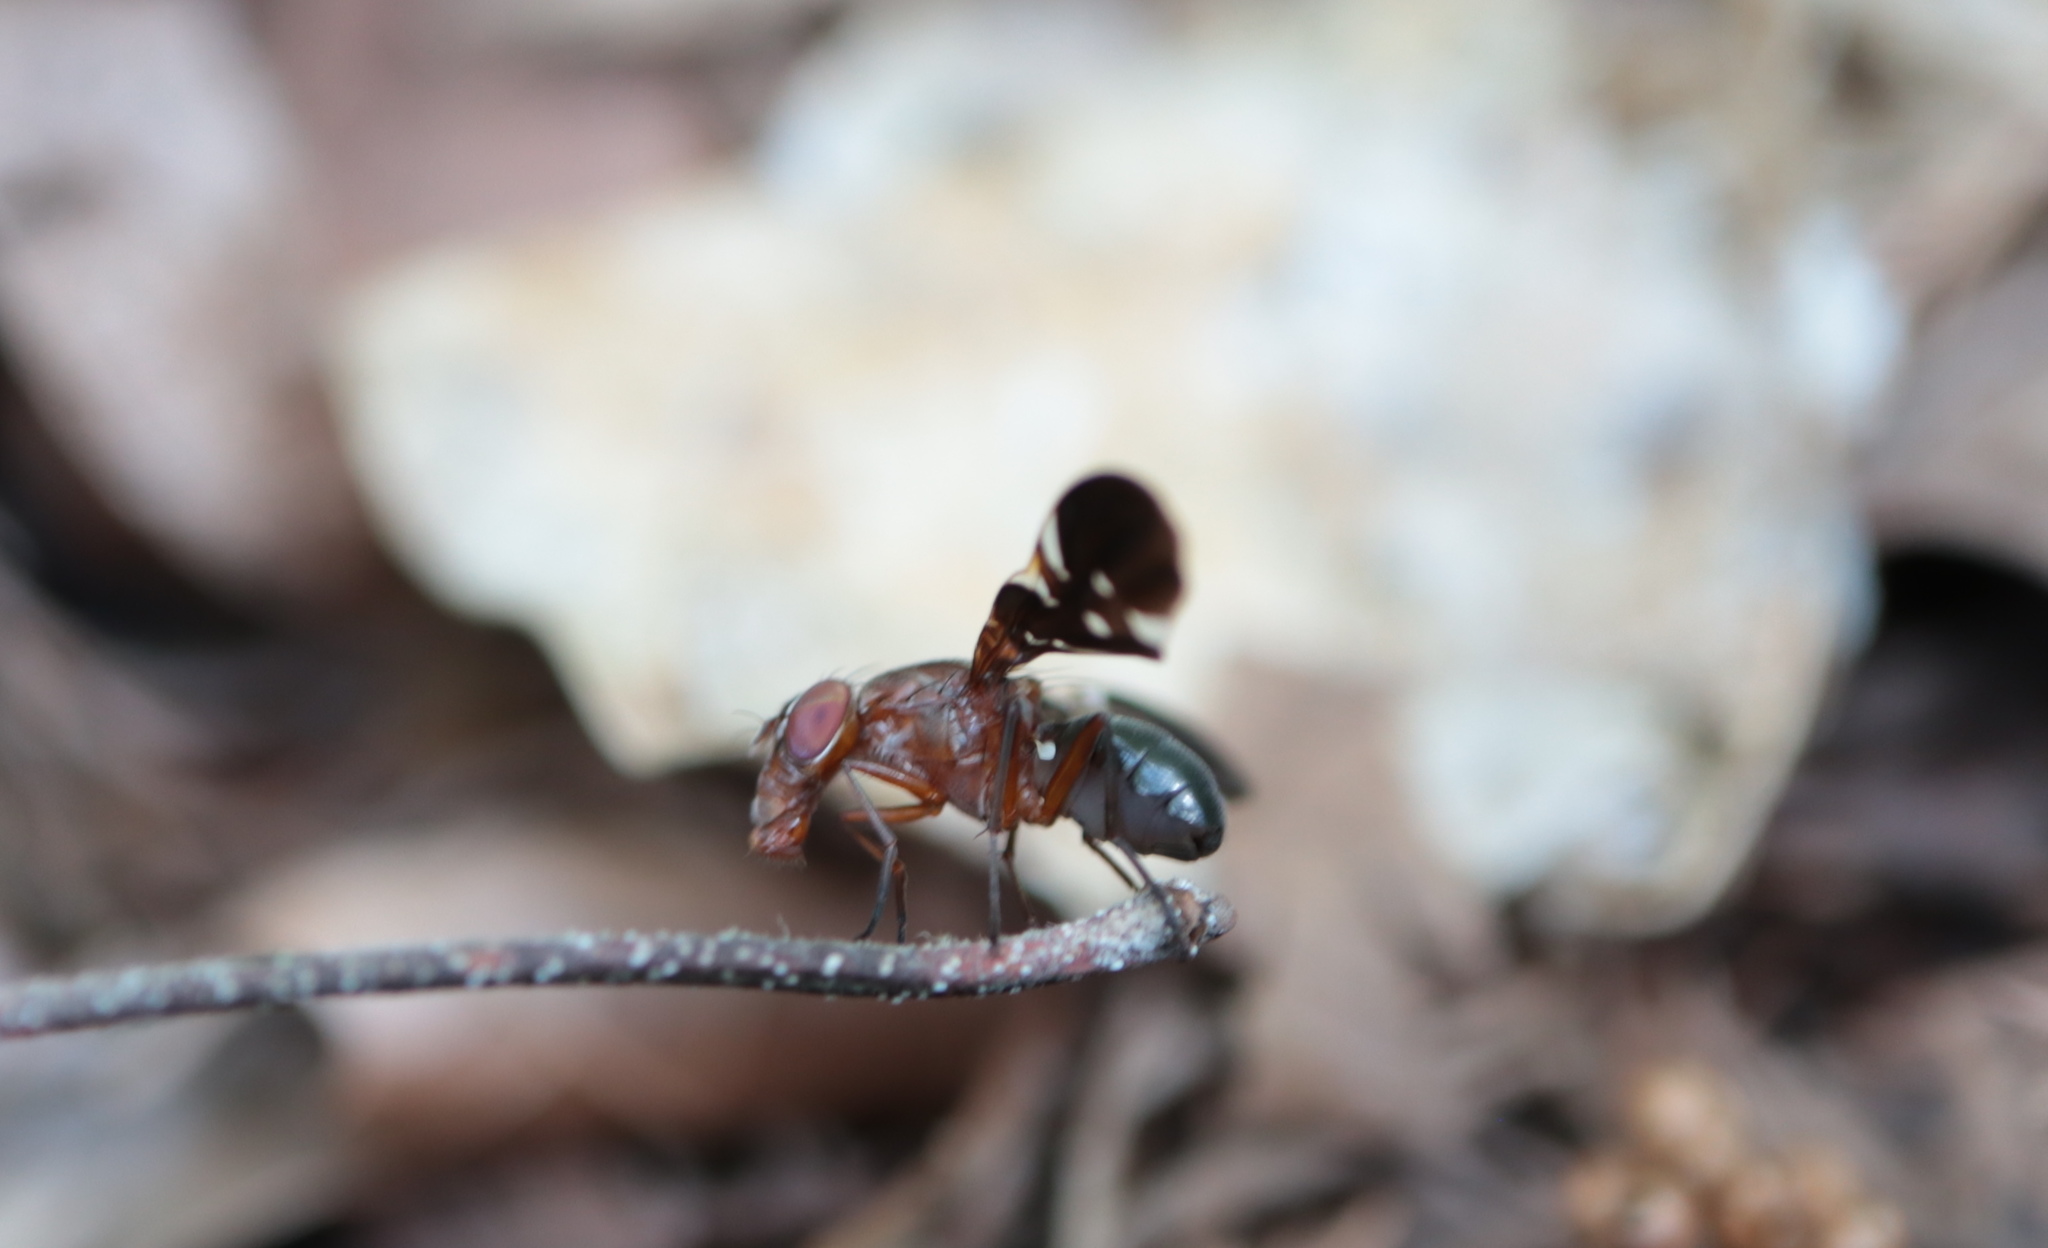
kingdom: Animalia
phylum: Arthropoda
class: Insecta
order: Diptera
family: Ulidiidae
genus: Delphinia
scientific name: Delphinia picta
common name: Common picture-winged fly
